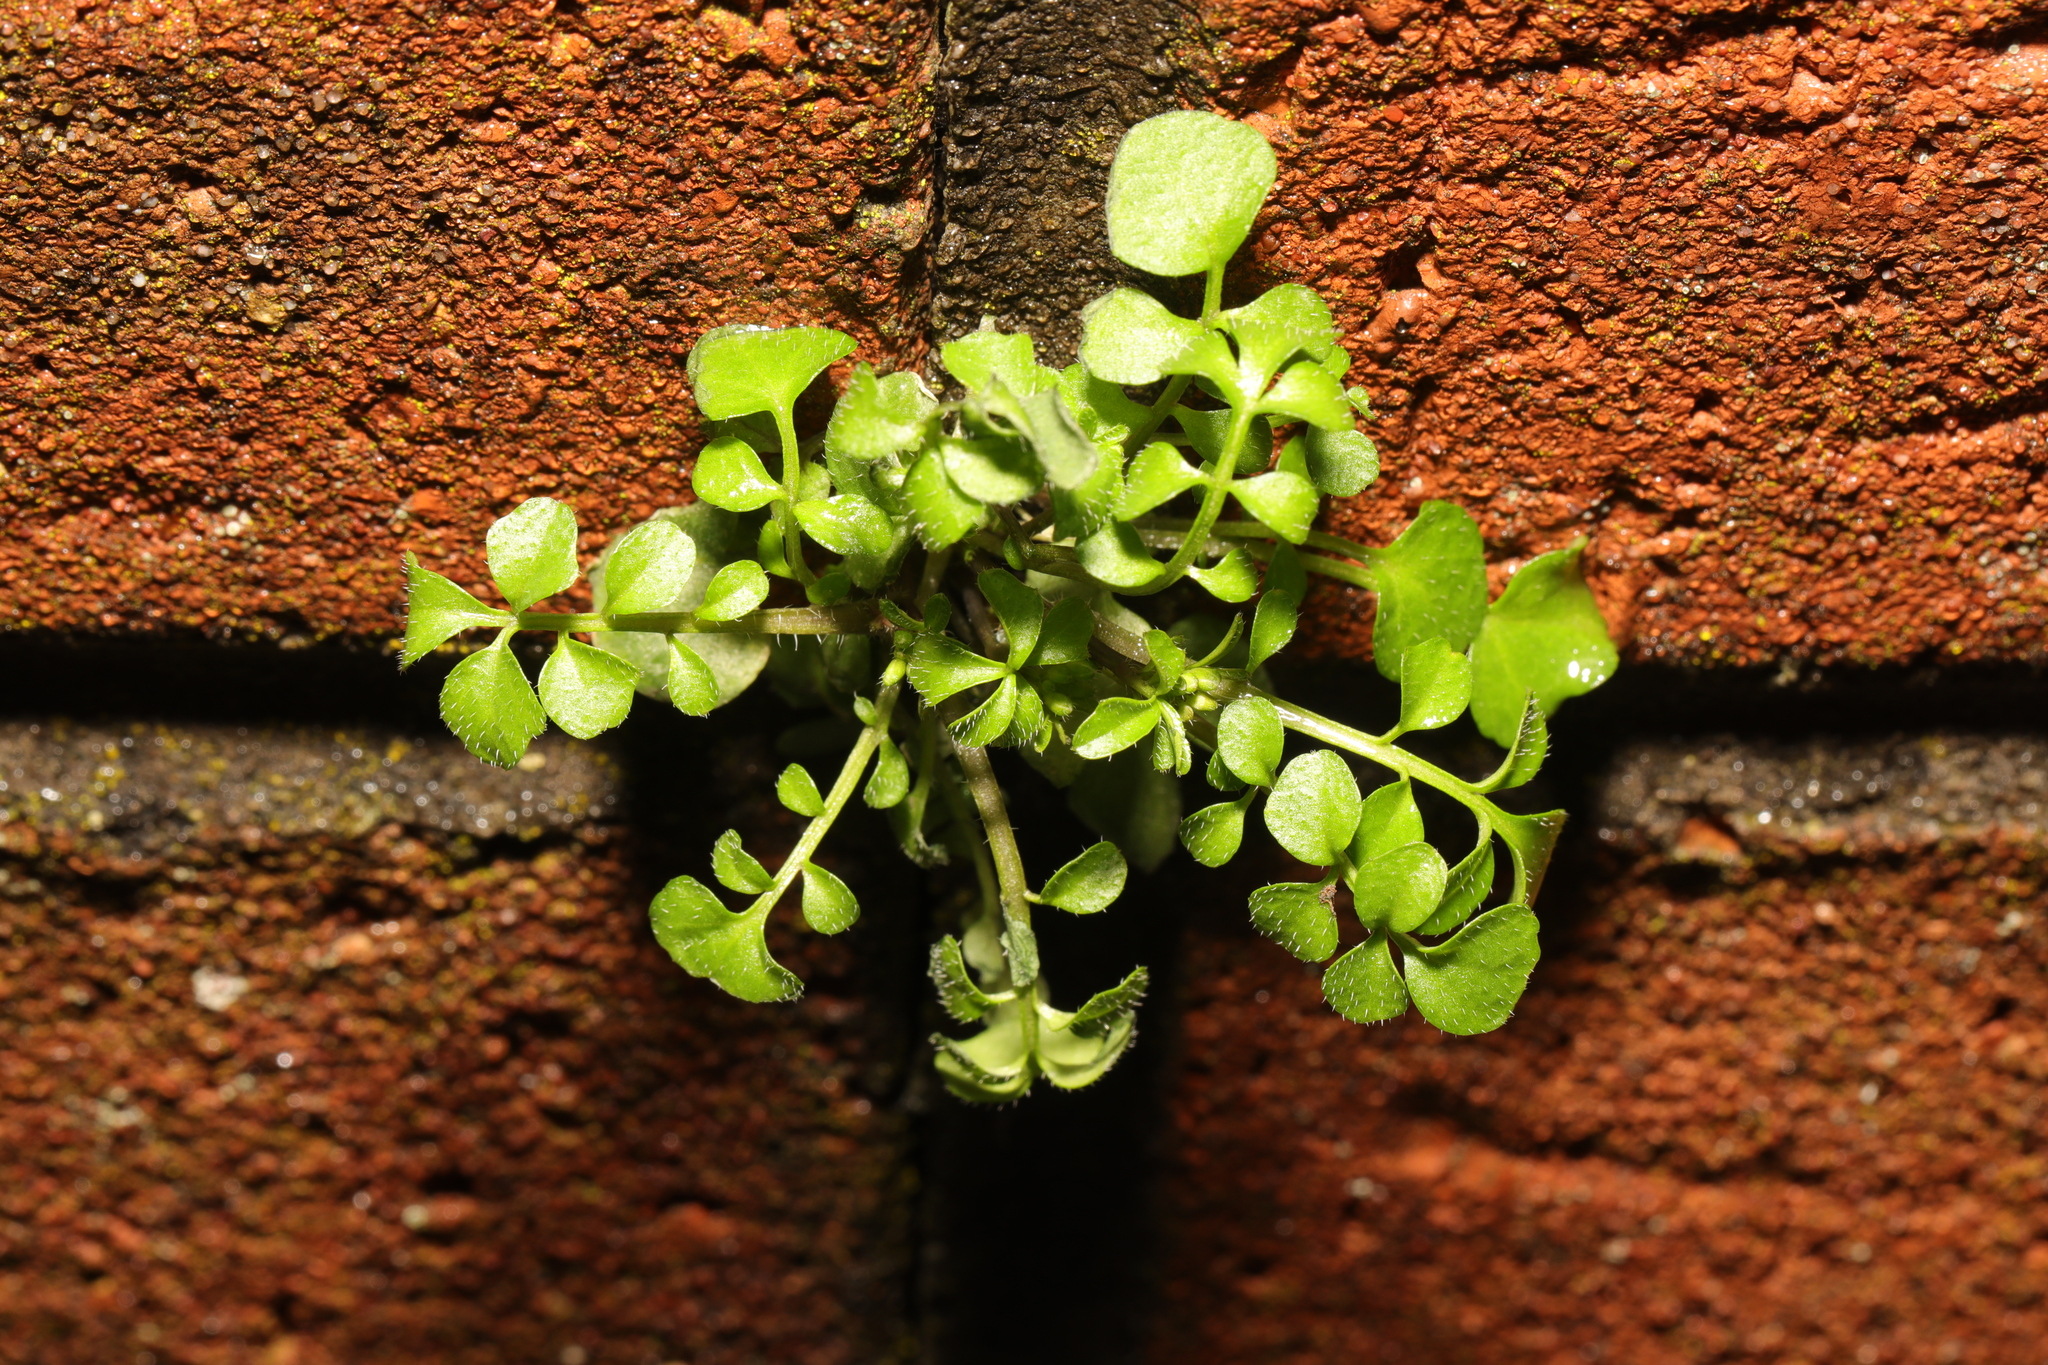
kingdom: Plantae
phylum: Tracheophyta
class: Magnoliopsida
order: Brassicales
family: Brassicaceae
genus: Cardamine
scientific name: Cardamine hirsuta
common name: Hairy bittercress
